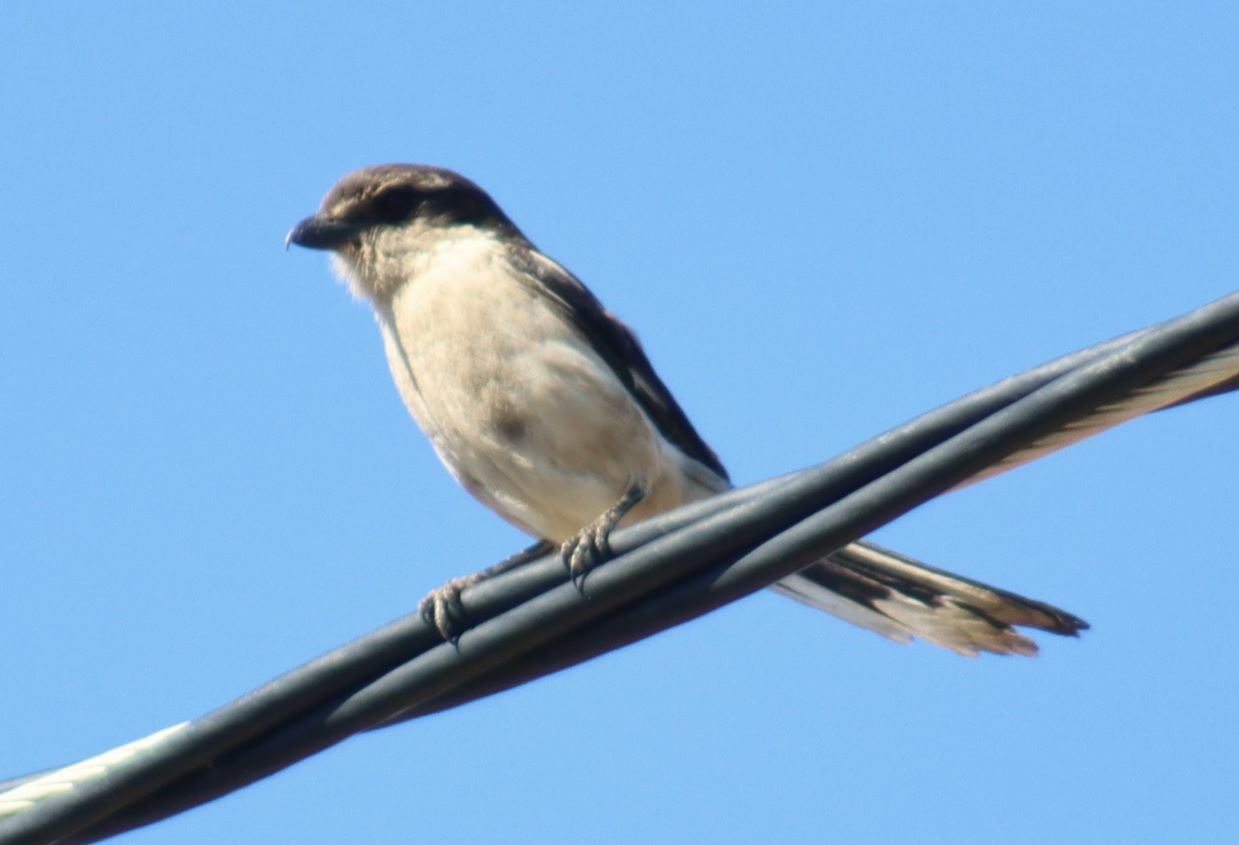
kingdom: Animalia
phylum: Chordata
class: Aves
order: Passeriformes
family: Laniidae
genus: Lanius
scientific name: Lanius collaris
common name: Southern fiscal
